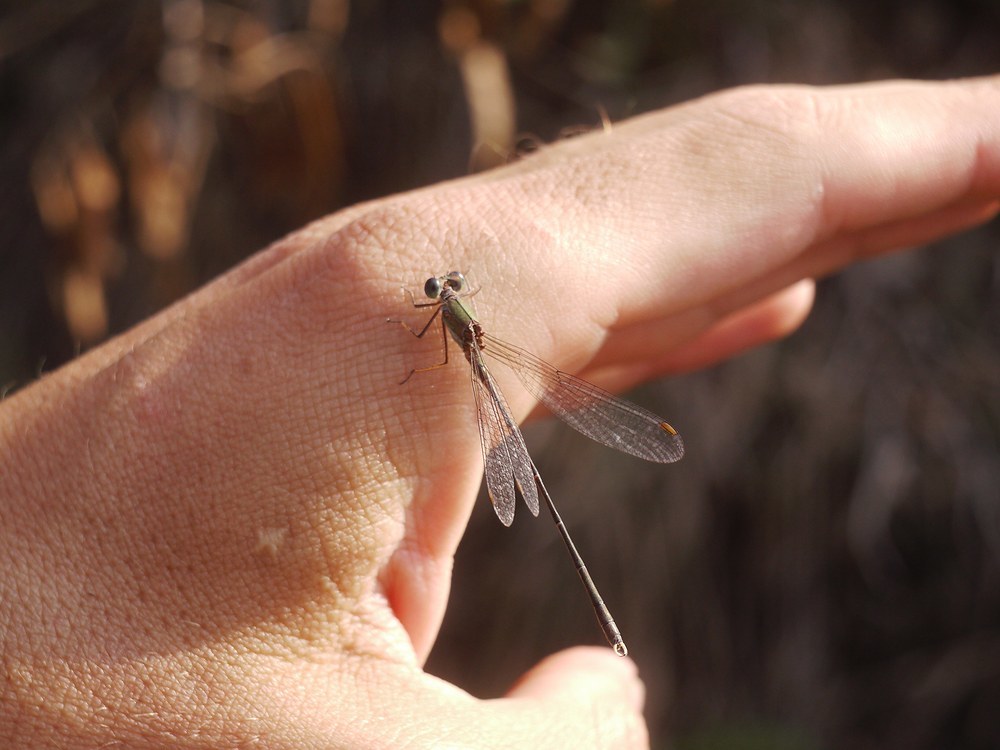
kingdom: Animalia
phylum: Arthropoda
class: Insecta
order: Odonata
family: Lestidae
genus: Chalcolestes
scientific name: Chalcolestes parvidens
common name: Eastern willow spreadwing
